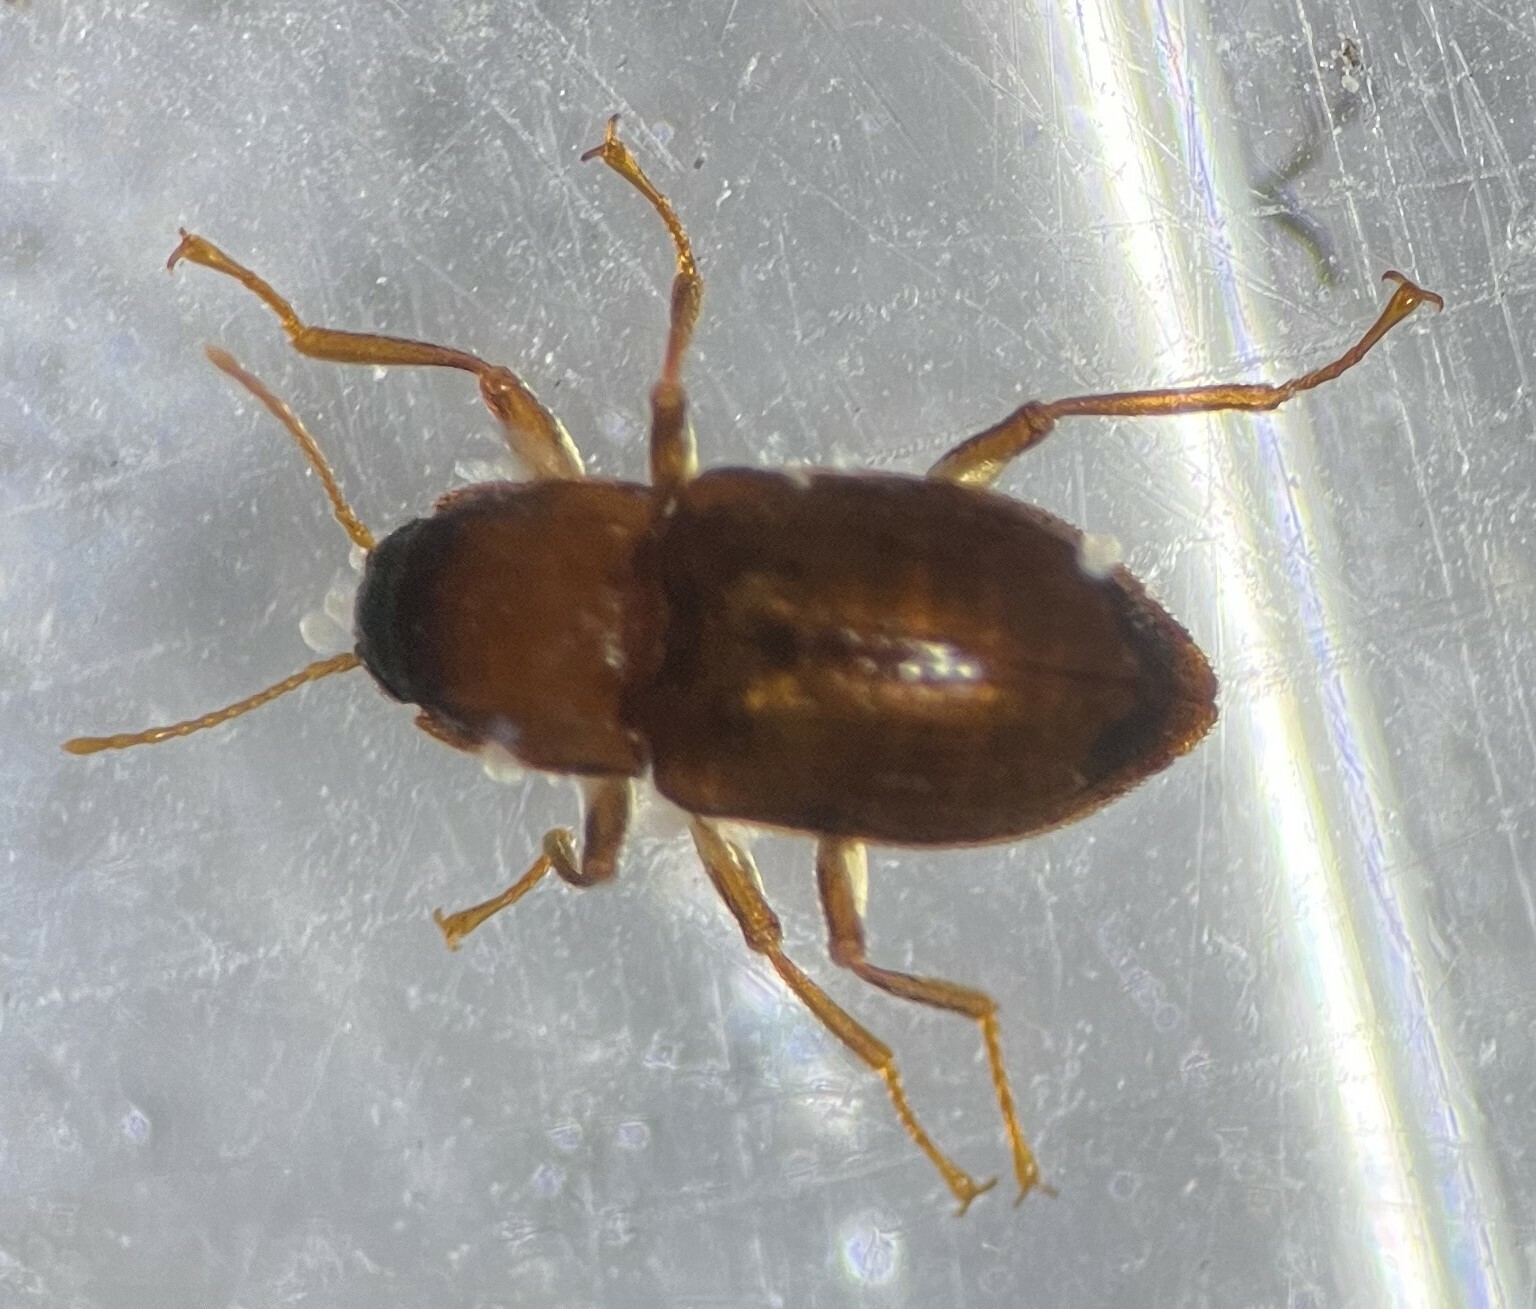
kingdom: Animalia
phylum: Arthropoda
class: Insecta
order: Coleoptera
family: Elmidae
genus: Heterelmis
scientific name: Heterelmis comalensis
